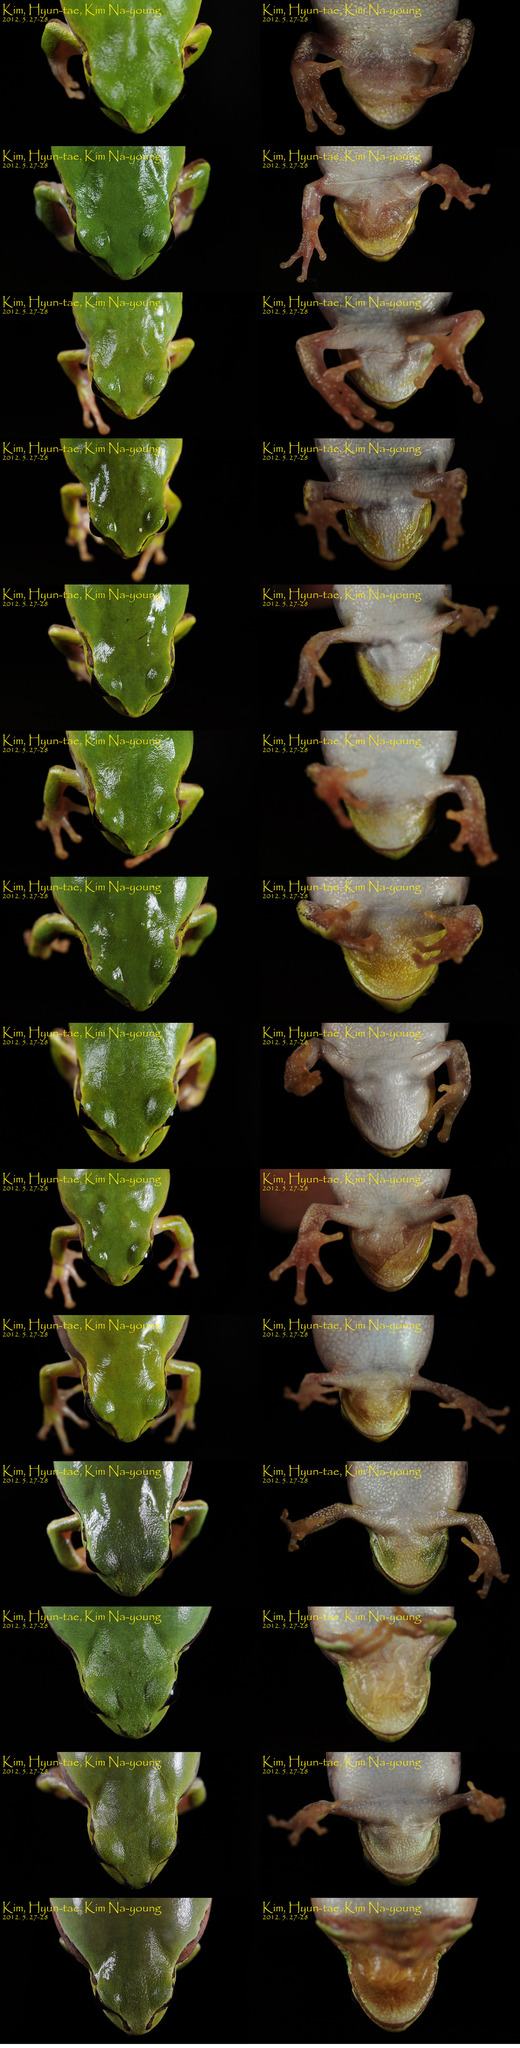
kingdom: Animalia
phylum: Chordata
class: Amphibia
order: Anura
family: Hylidae
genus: Dryophytes
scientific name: Dryophytes japonicus
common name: Japanese treefrog
